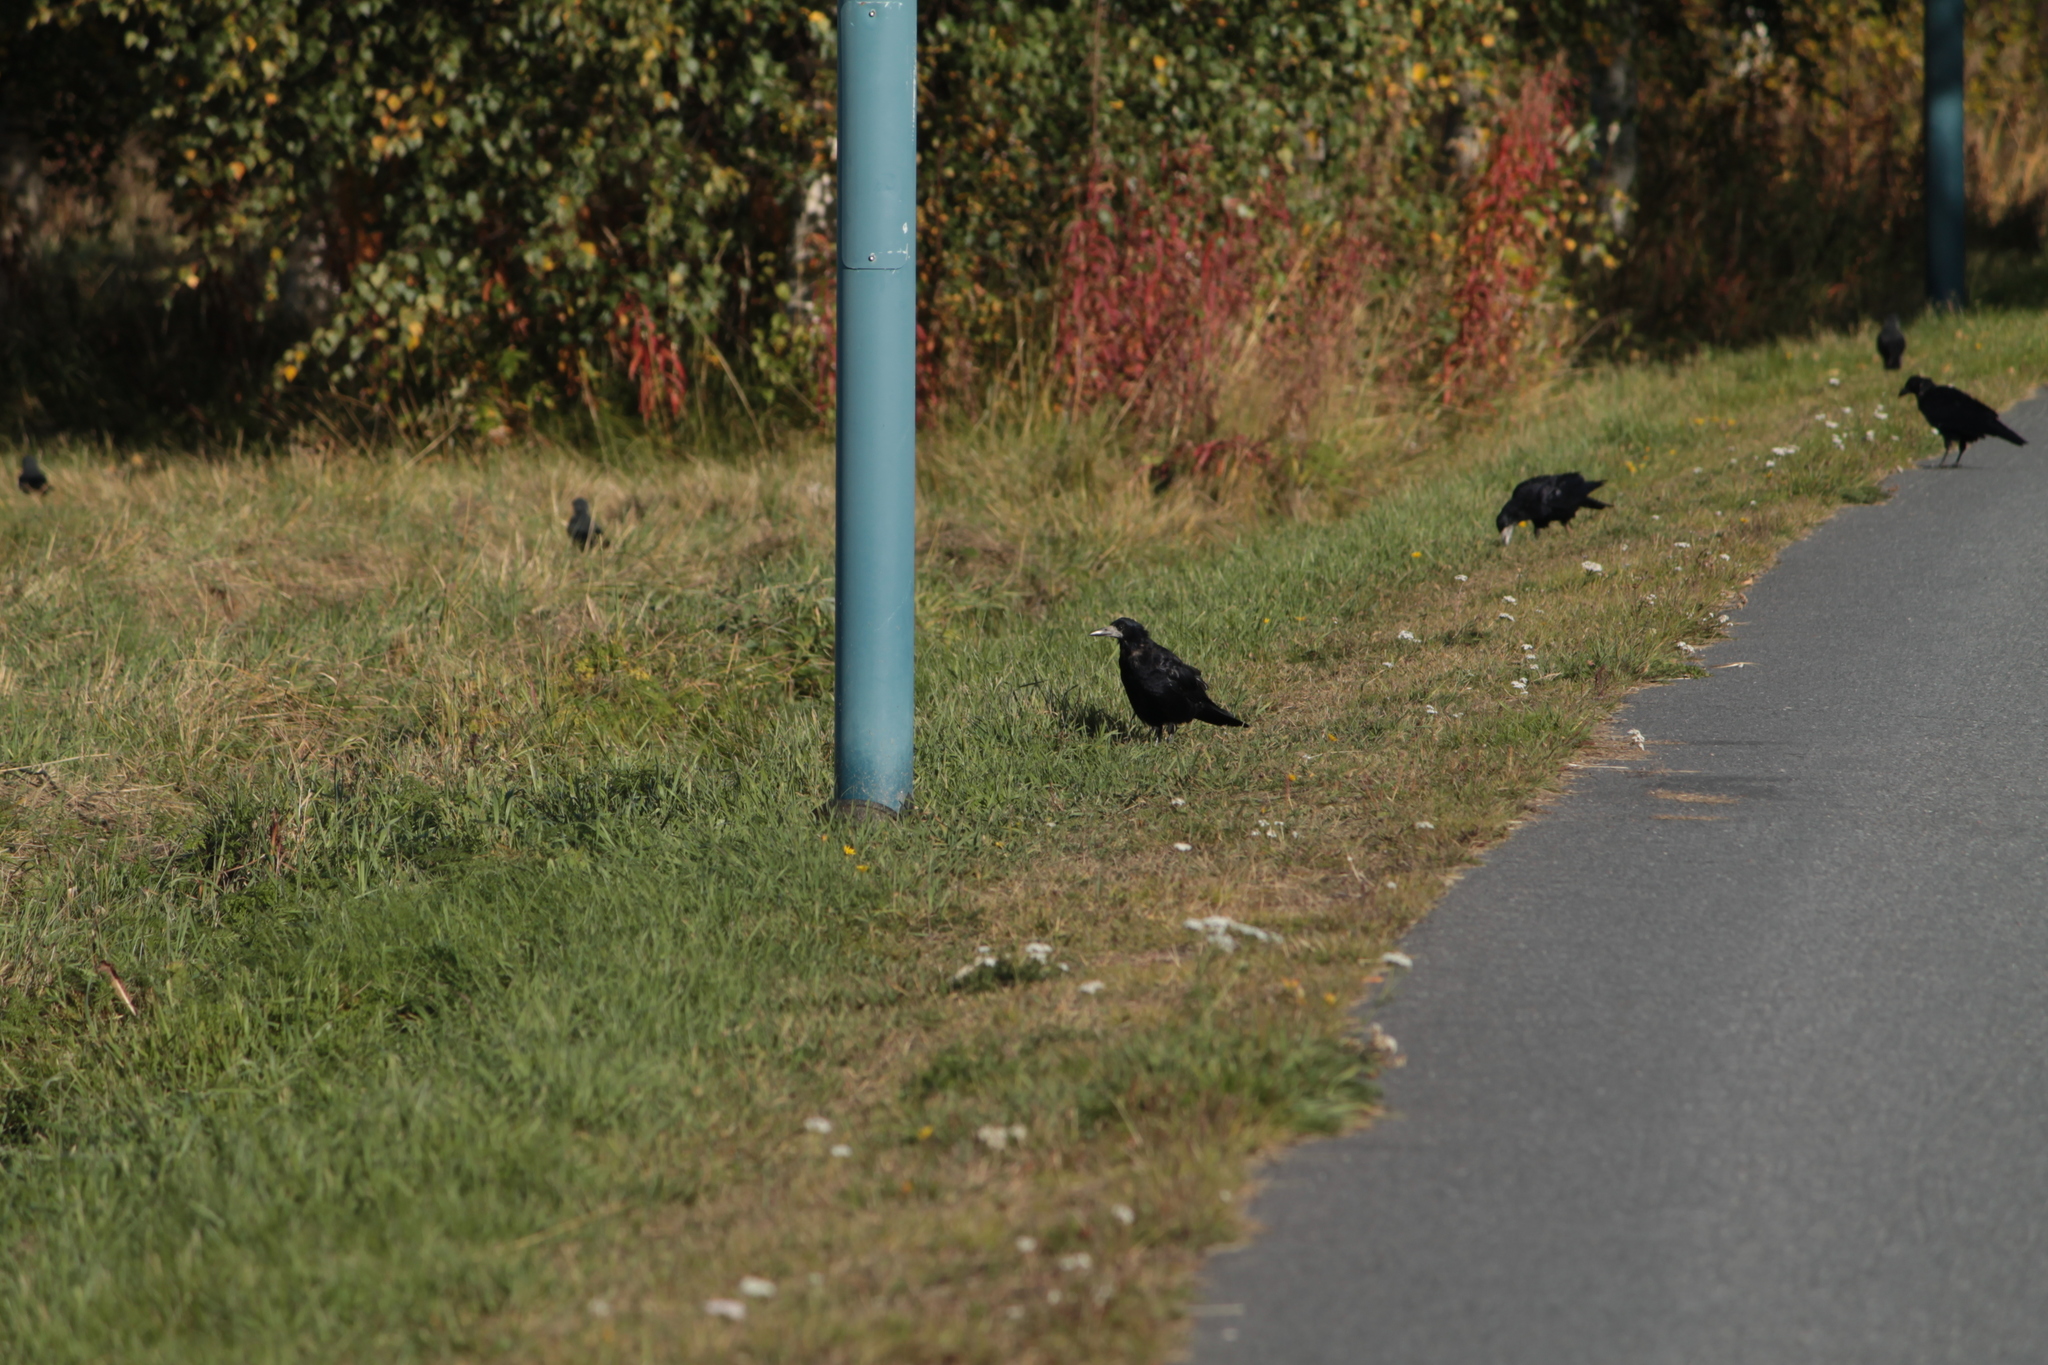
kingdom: Animalia
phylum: Chordata
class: Aves
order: Passeriformes
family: Corvidae
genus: Corvus
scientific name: Corvus frugilegus
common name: Rook
